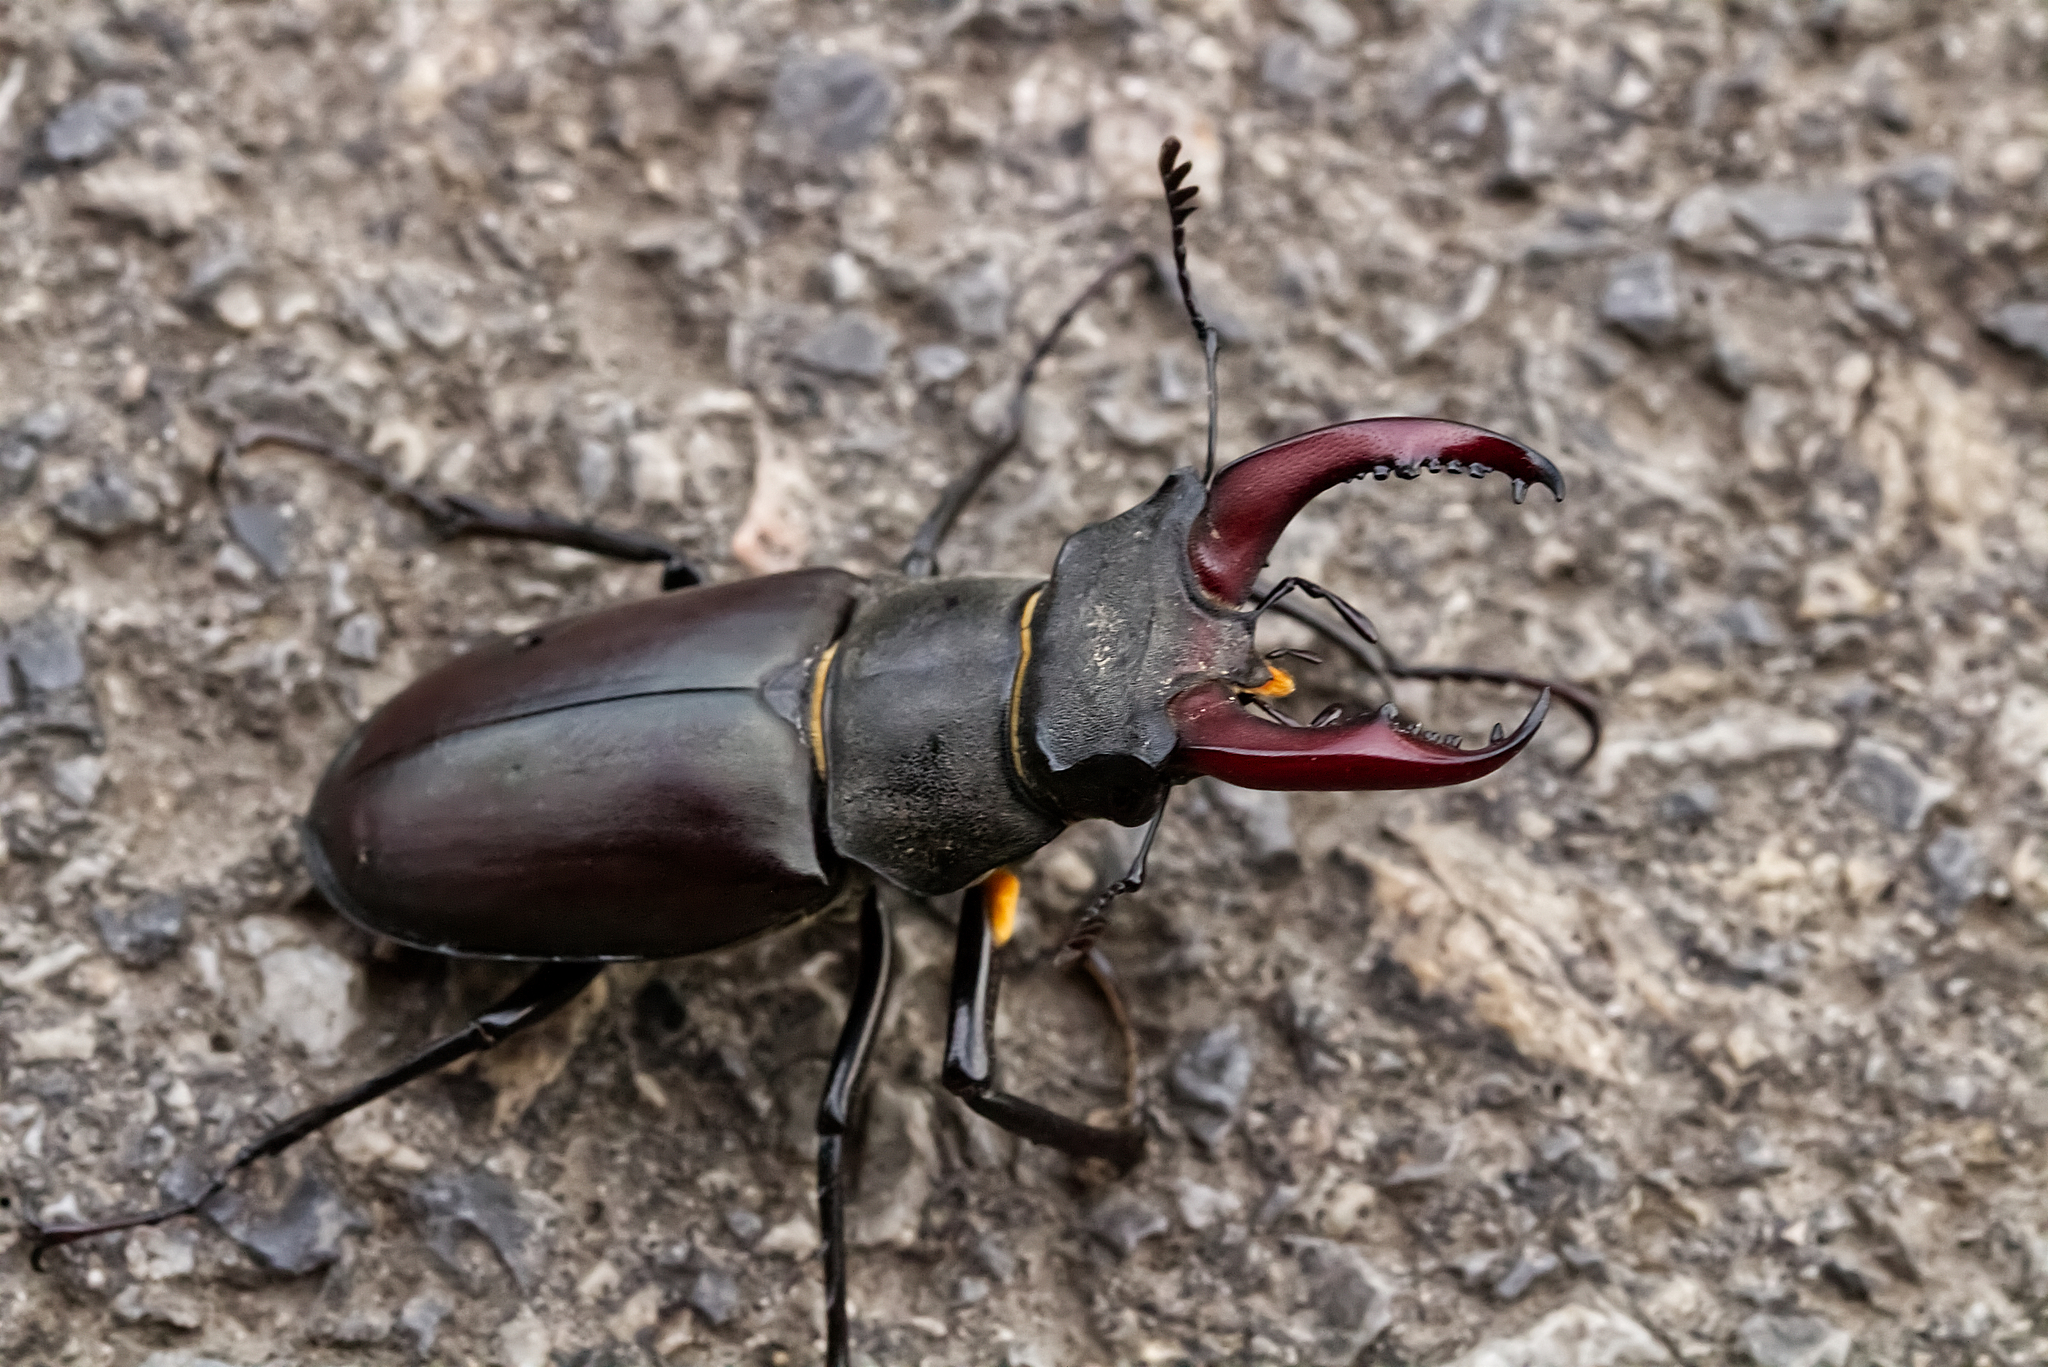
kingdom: Animalia
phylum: Arthropoda
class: Insecta
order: Coleoptera
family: Lucanidae
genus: Lucanus
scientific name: Lucanus cervus
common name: Stag beetle
